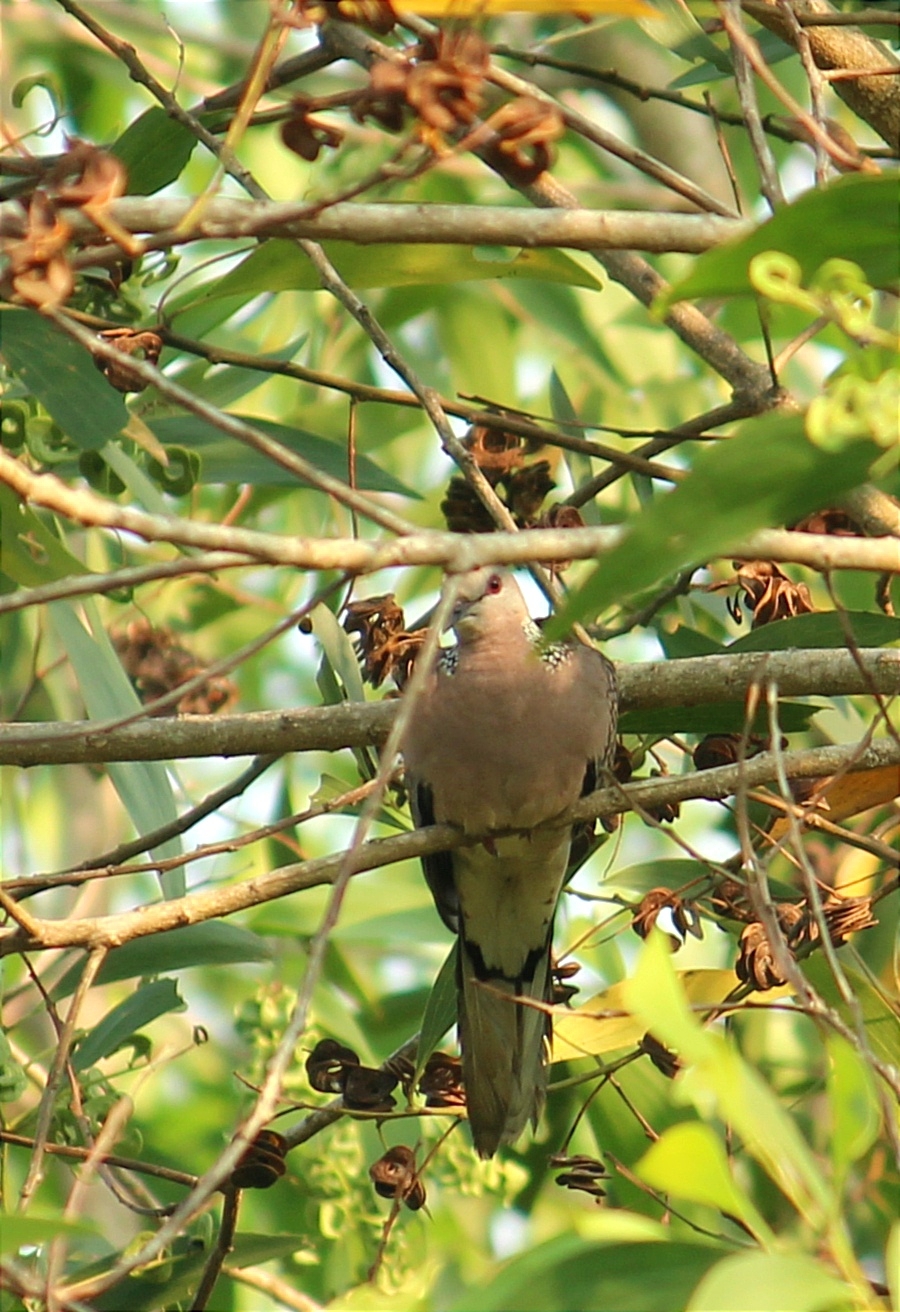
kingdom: Animalia
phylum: Chordata
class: Aves
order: Columbiformes
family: Columbidae
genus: Spilopelia
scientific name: Spilopelia chinensis
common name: Spotted dove
